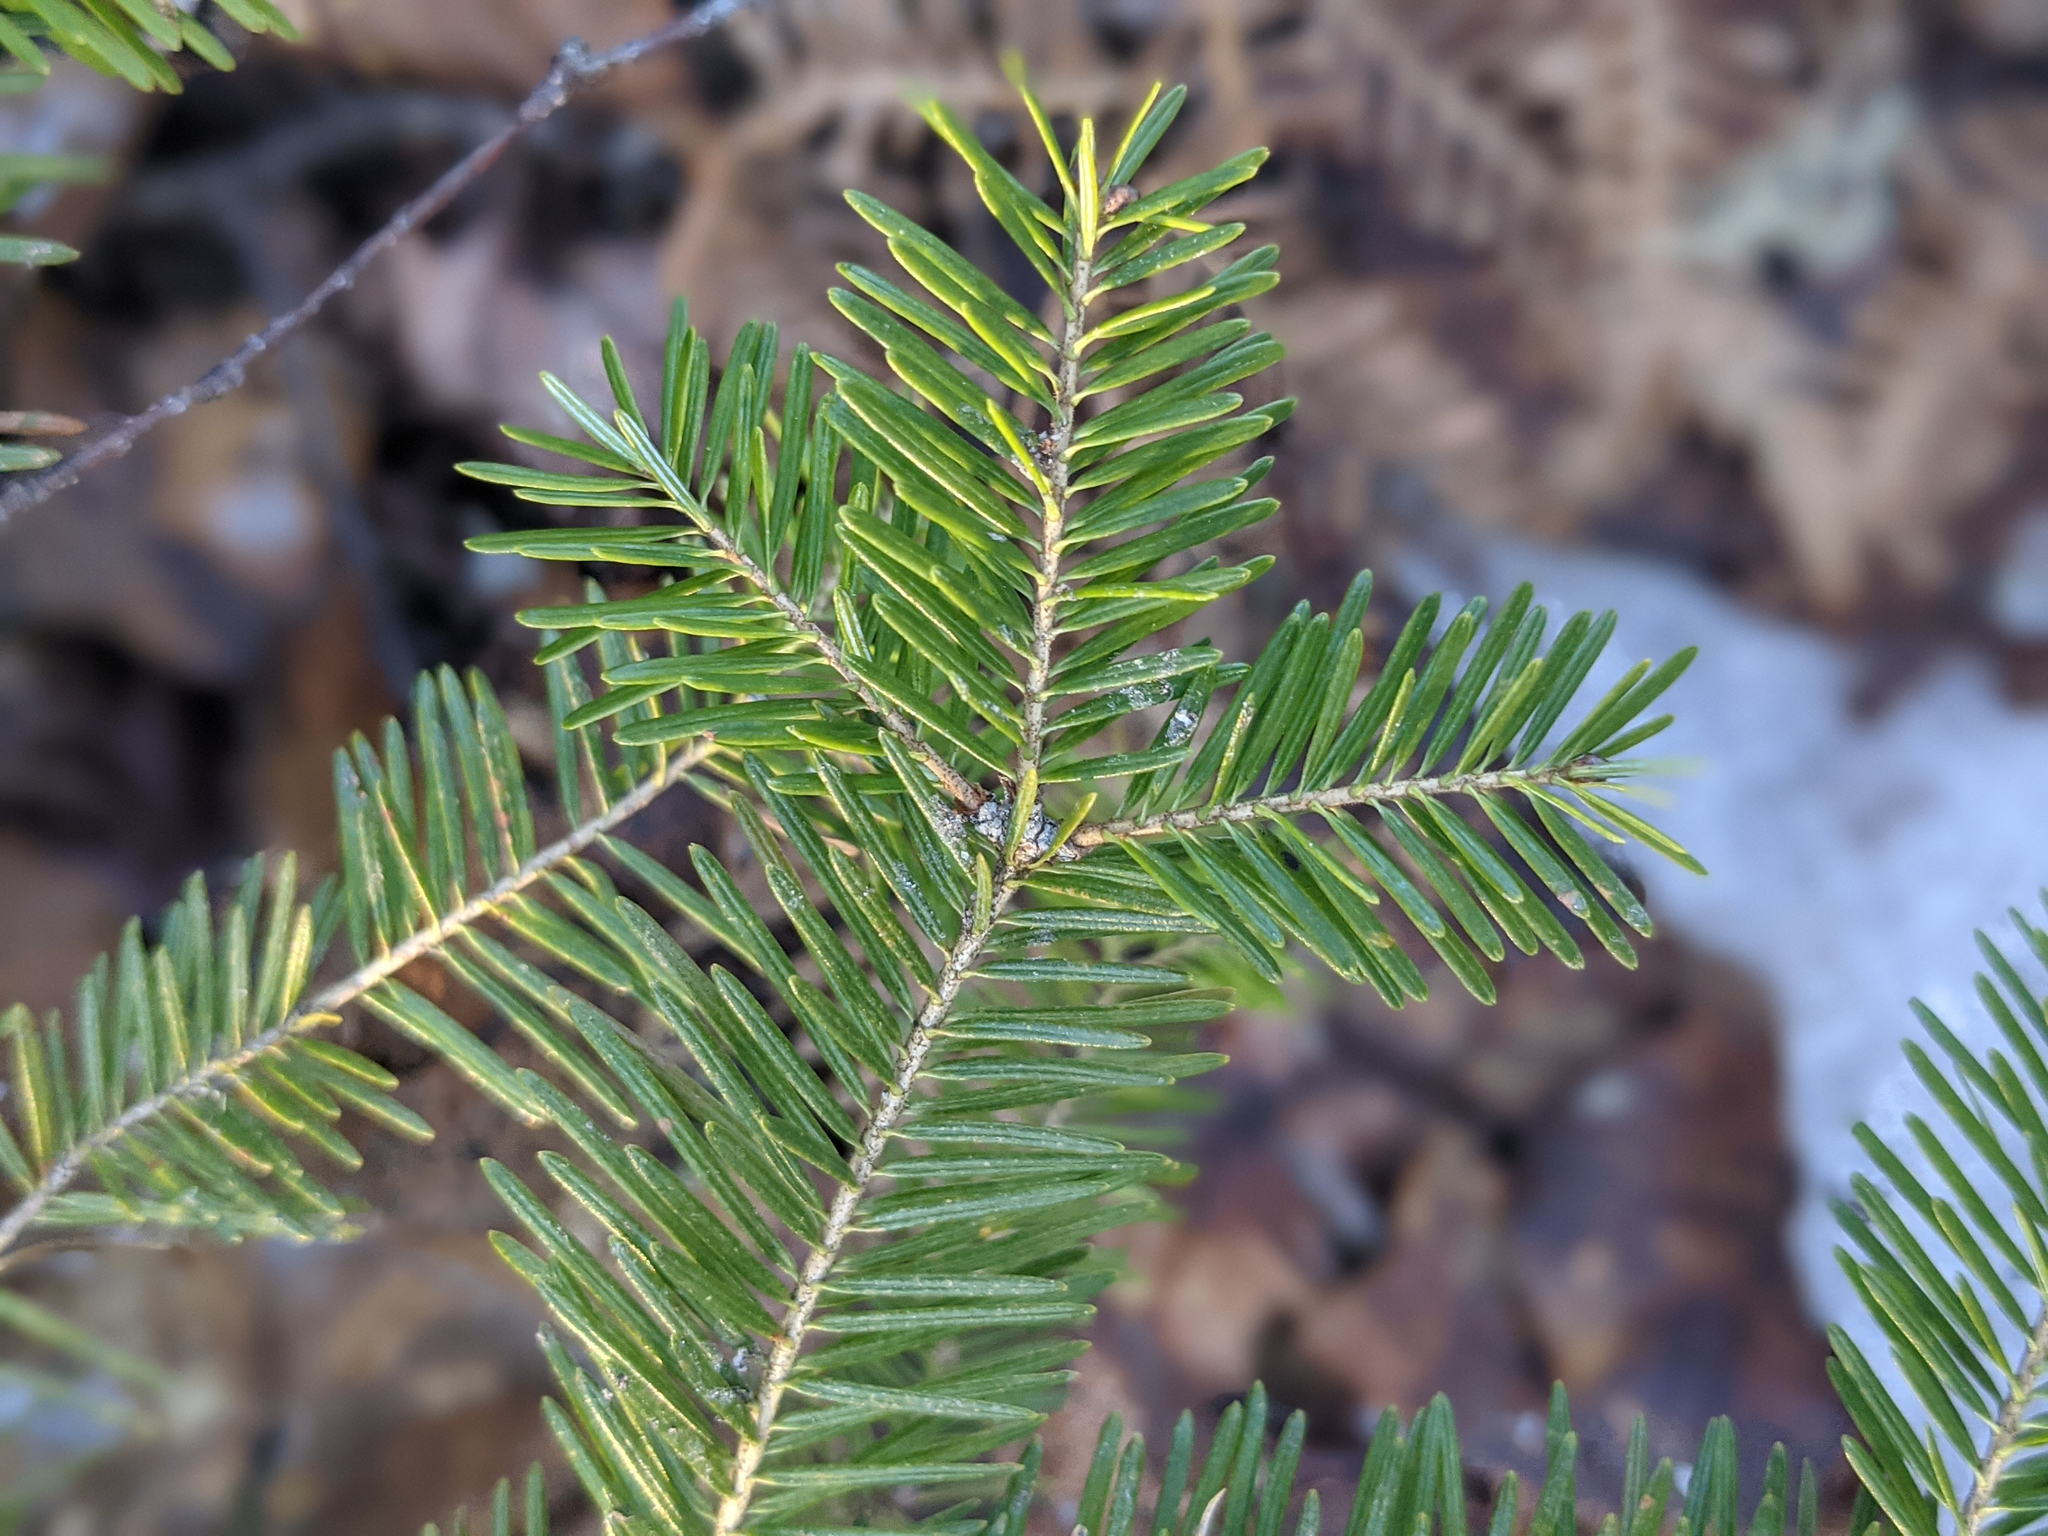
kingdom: Plantae
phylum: Tracheophyta
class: Pinopsida
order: Pinales
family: Pinaceae
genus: Abies
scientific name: Abies balsamea
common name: Balsam fir
